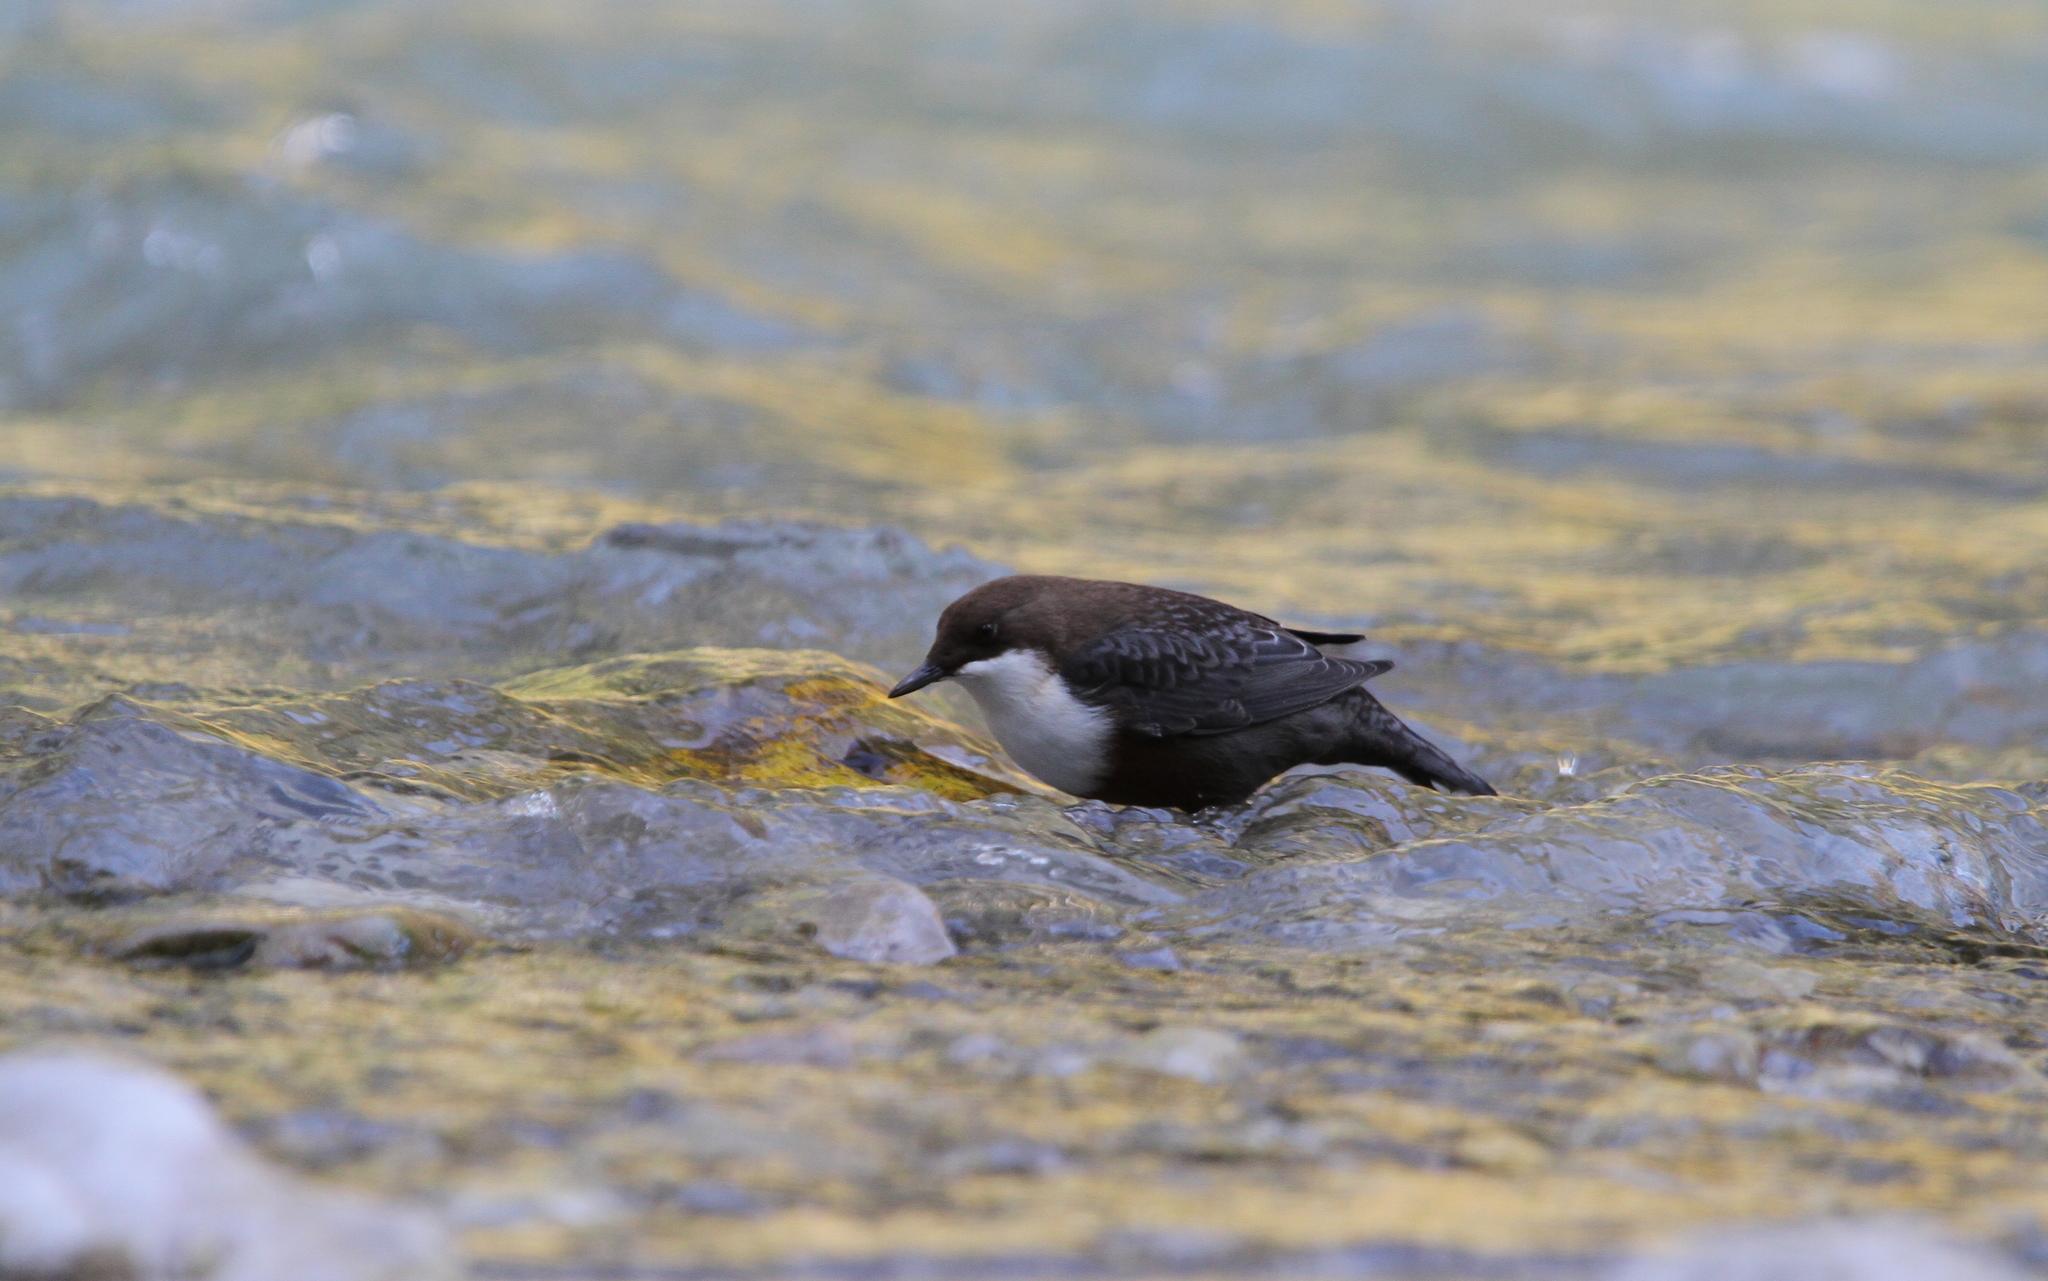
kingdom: Animalia
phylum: Chordata
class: Aves
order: Passeriformes
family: Cinclidae
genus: Cinclus
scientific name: Cinclus cinclus
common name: White-throated dipper
